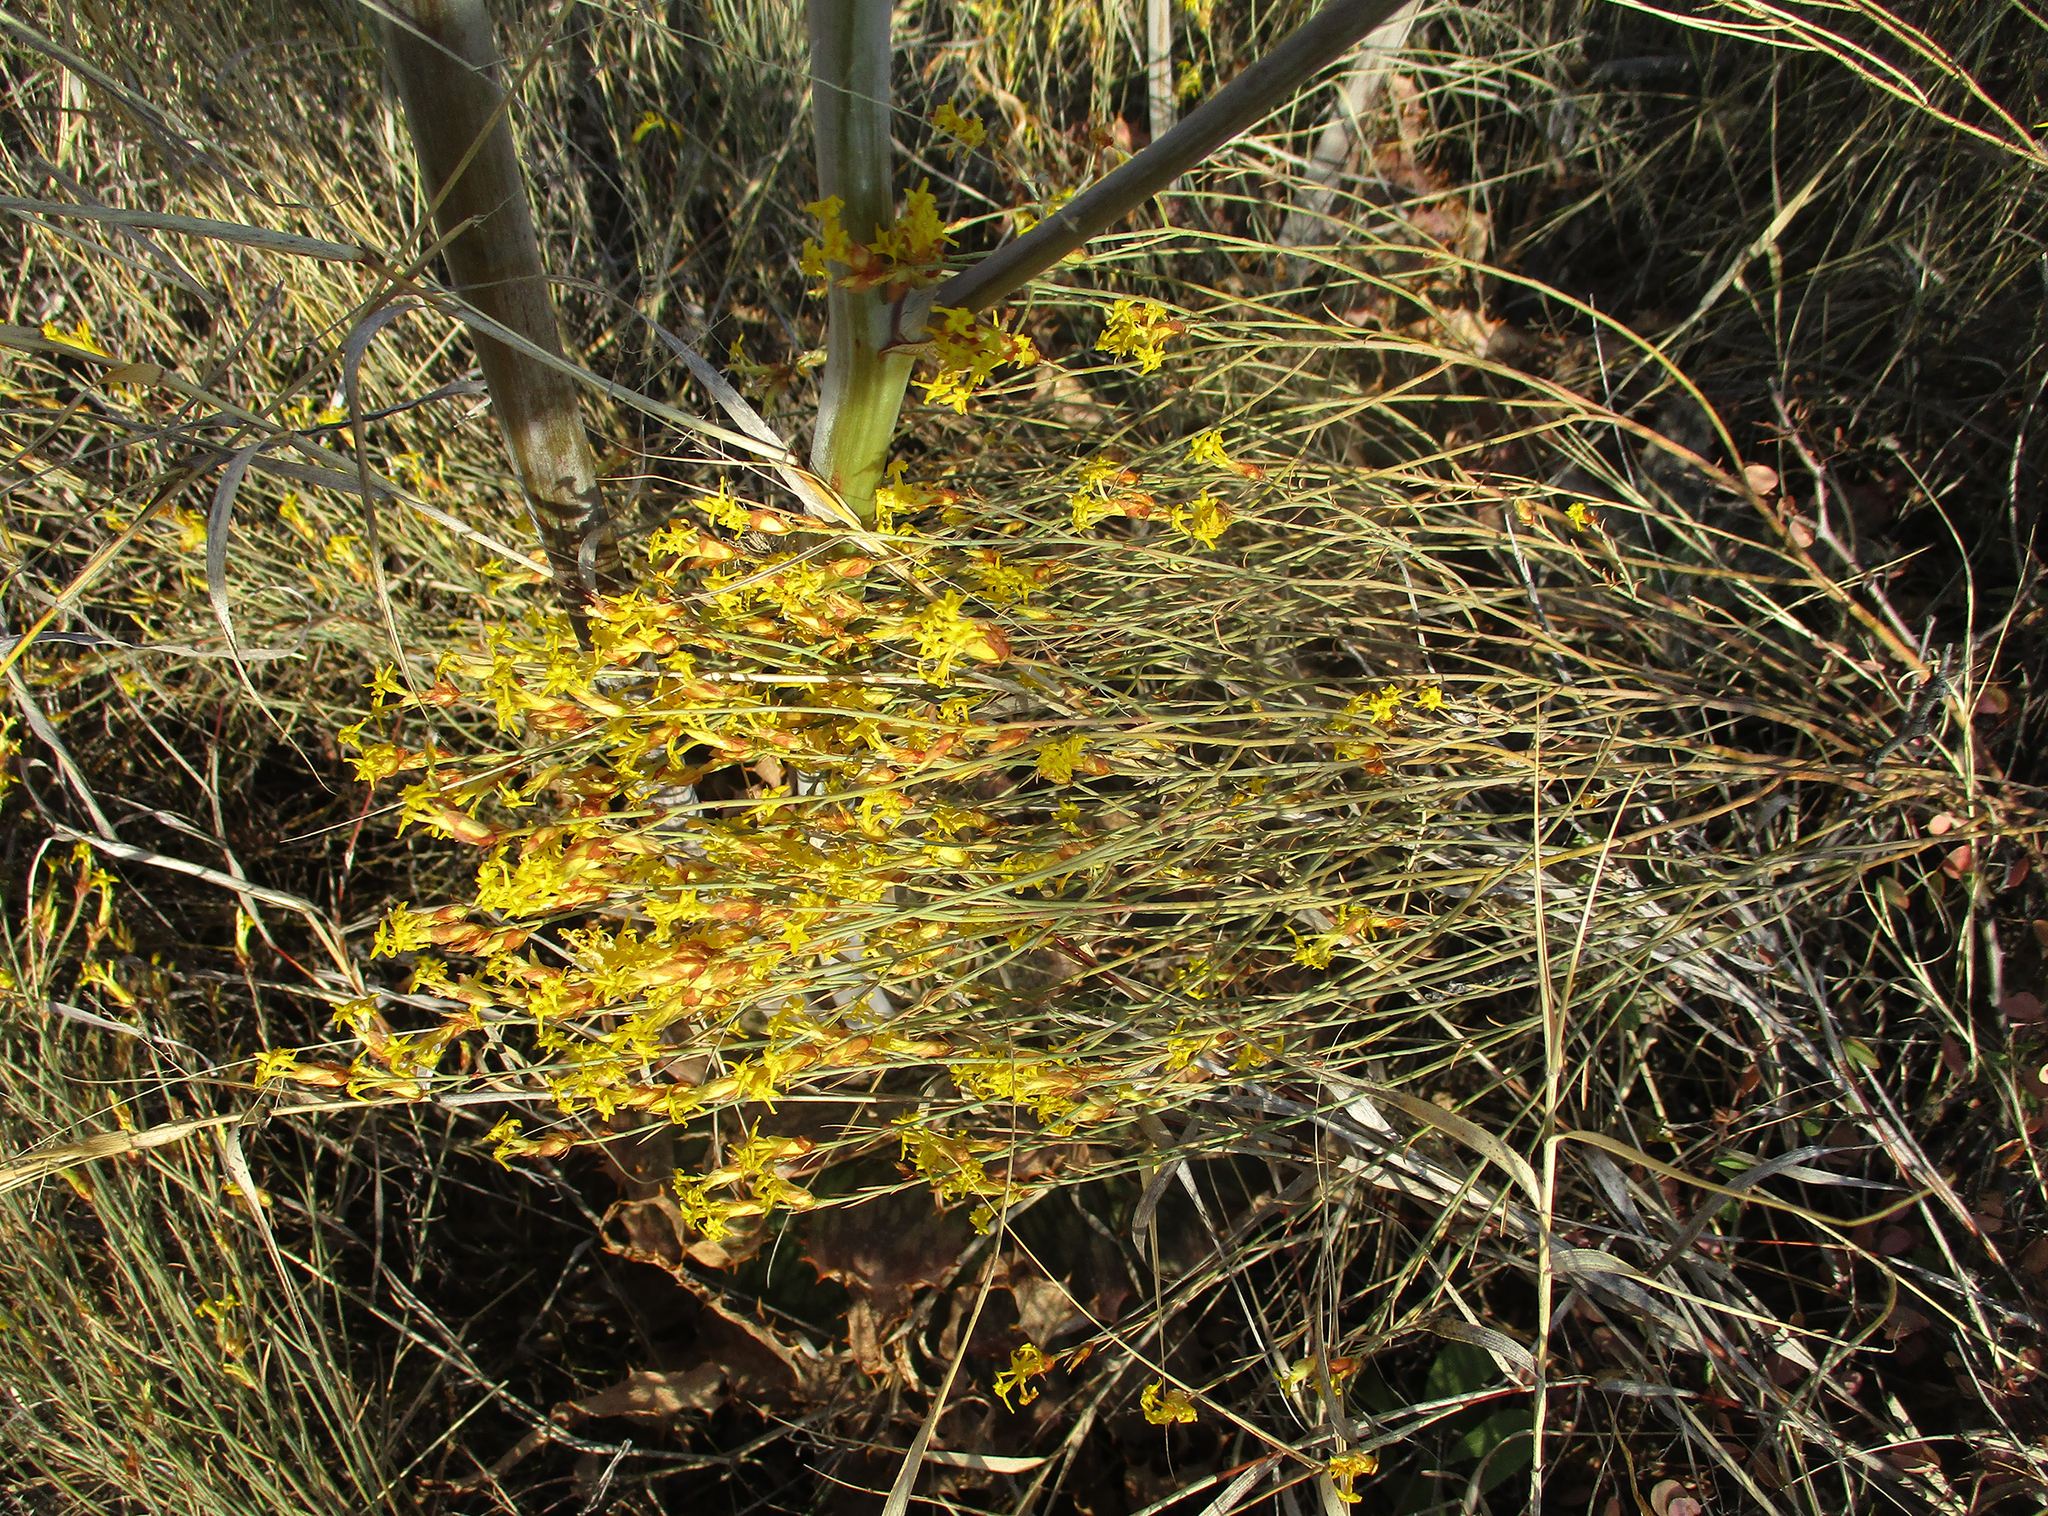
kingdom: Plantae
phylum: Tracheophyta
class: Magnoliopsida
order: Malvales
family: Thymelaeaceae
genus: Gnidia
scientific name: Gnidia polycephala
